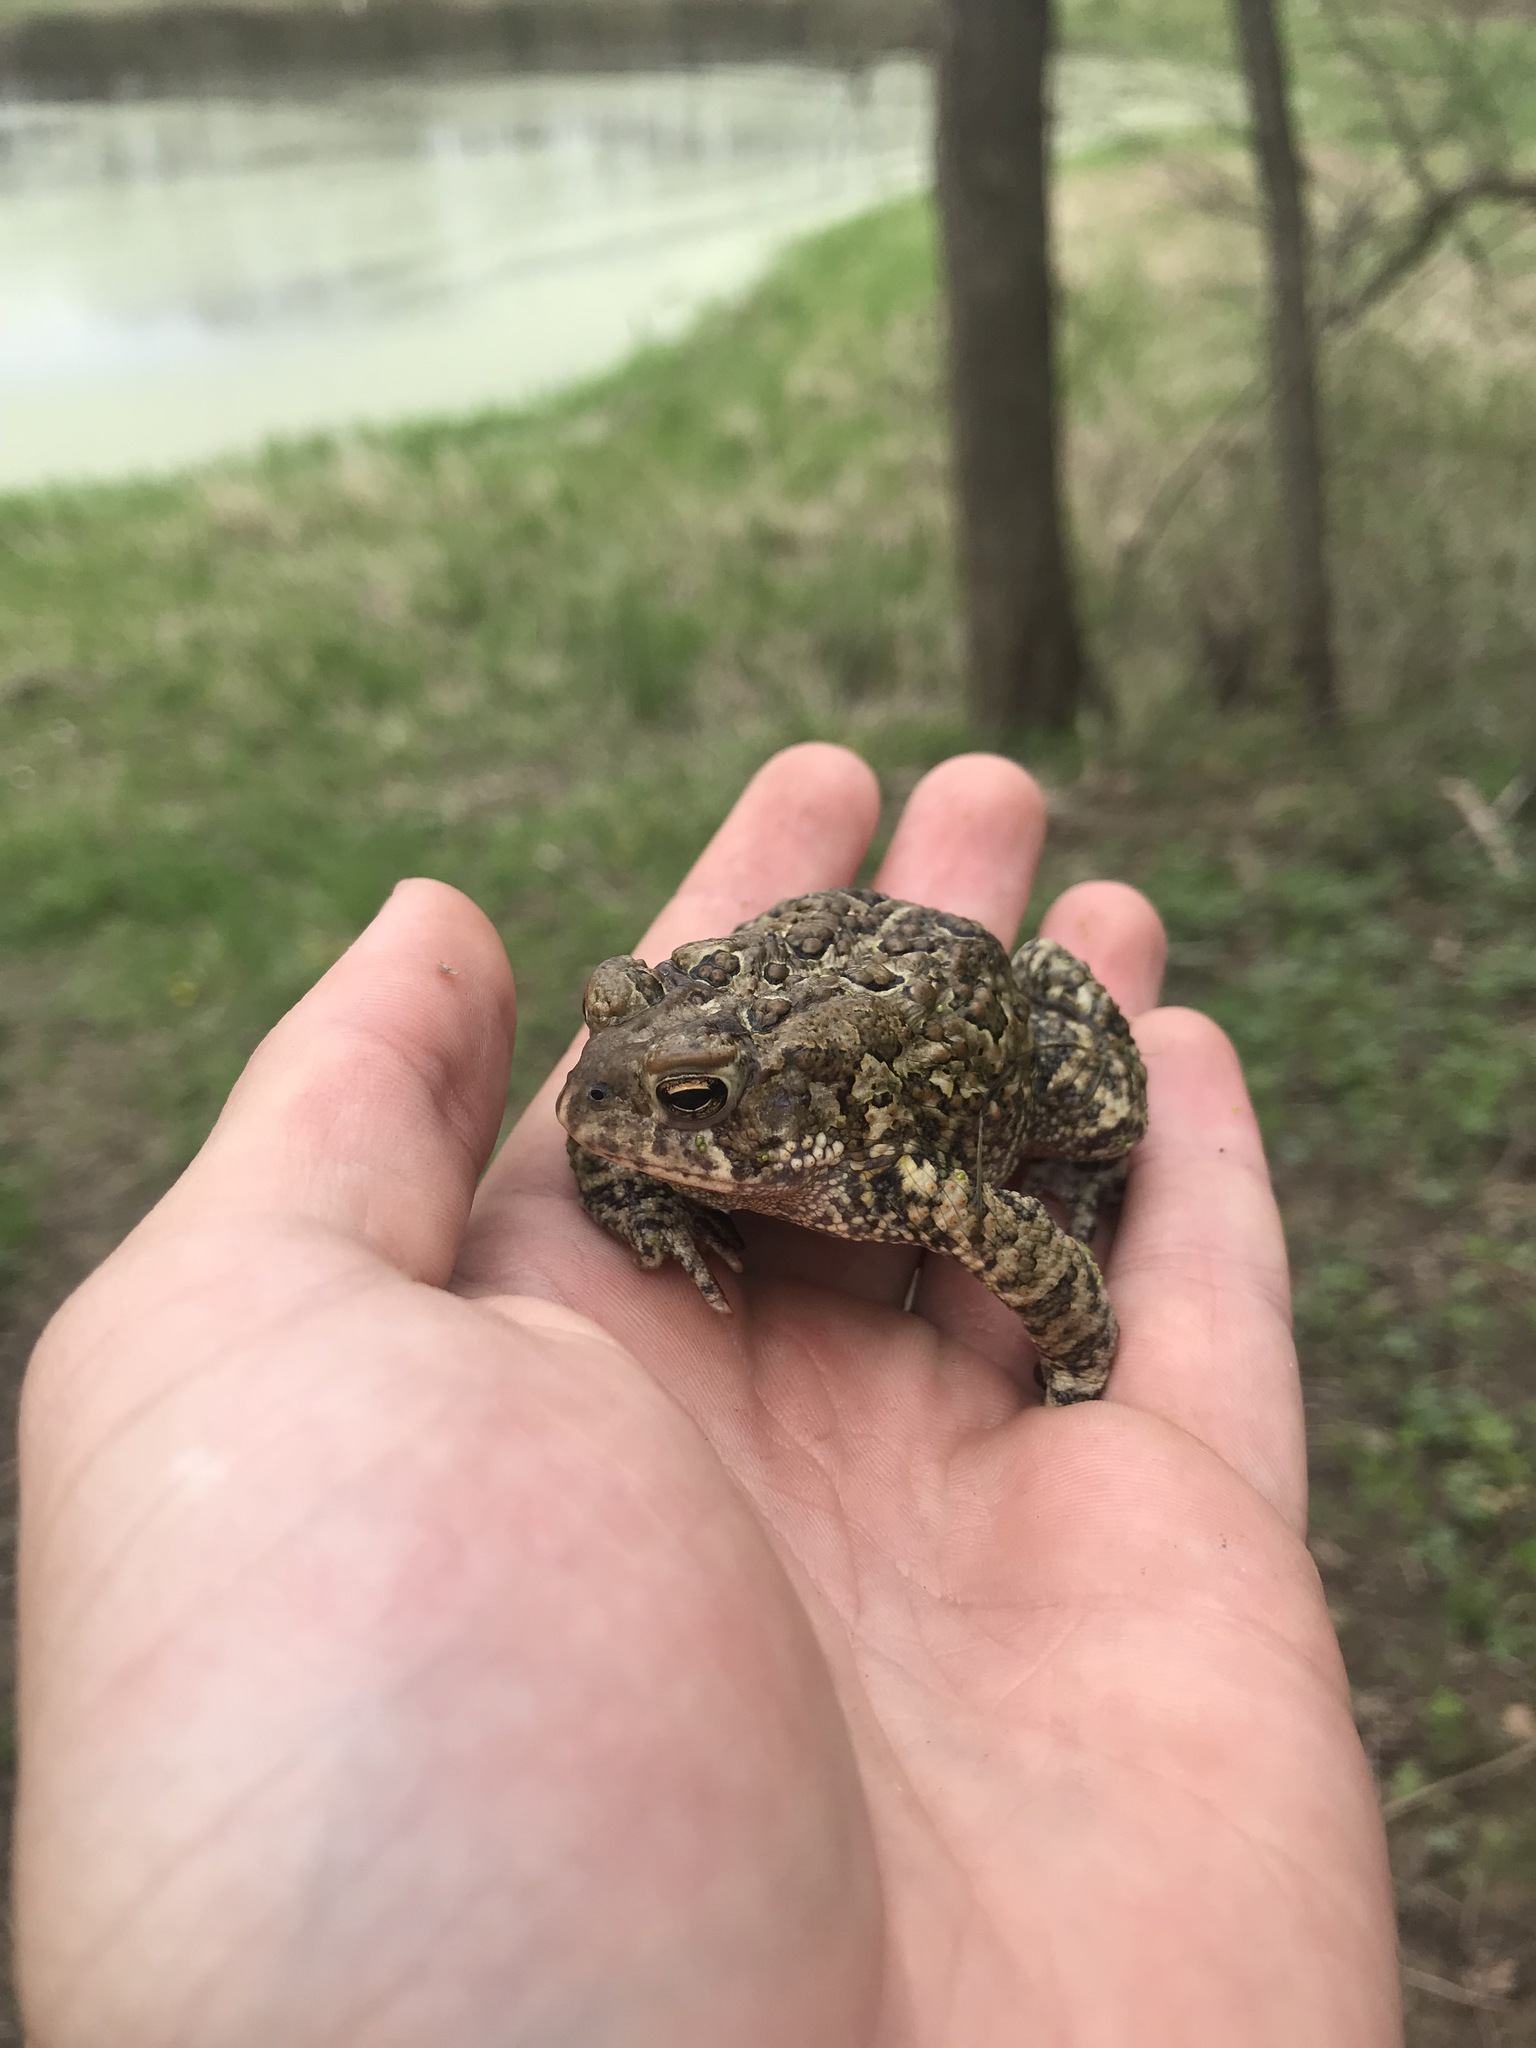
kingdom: Animalia
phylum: Chordata
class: Amphibia
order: Anura
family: Bufonidae
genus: Anaxyrus
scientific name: Anaxyrus americanus
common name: American toad
